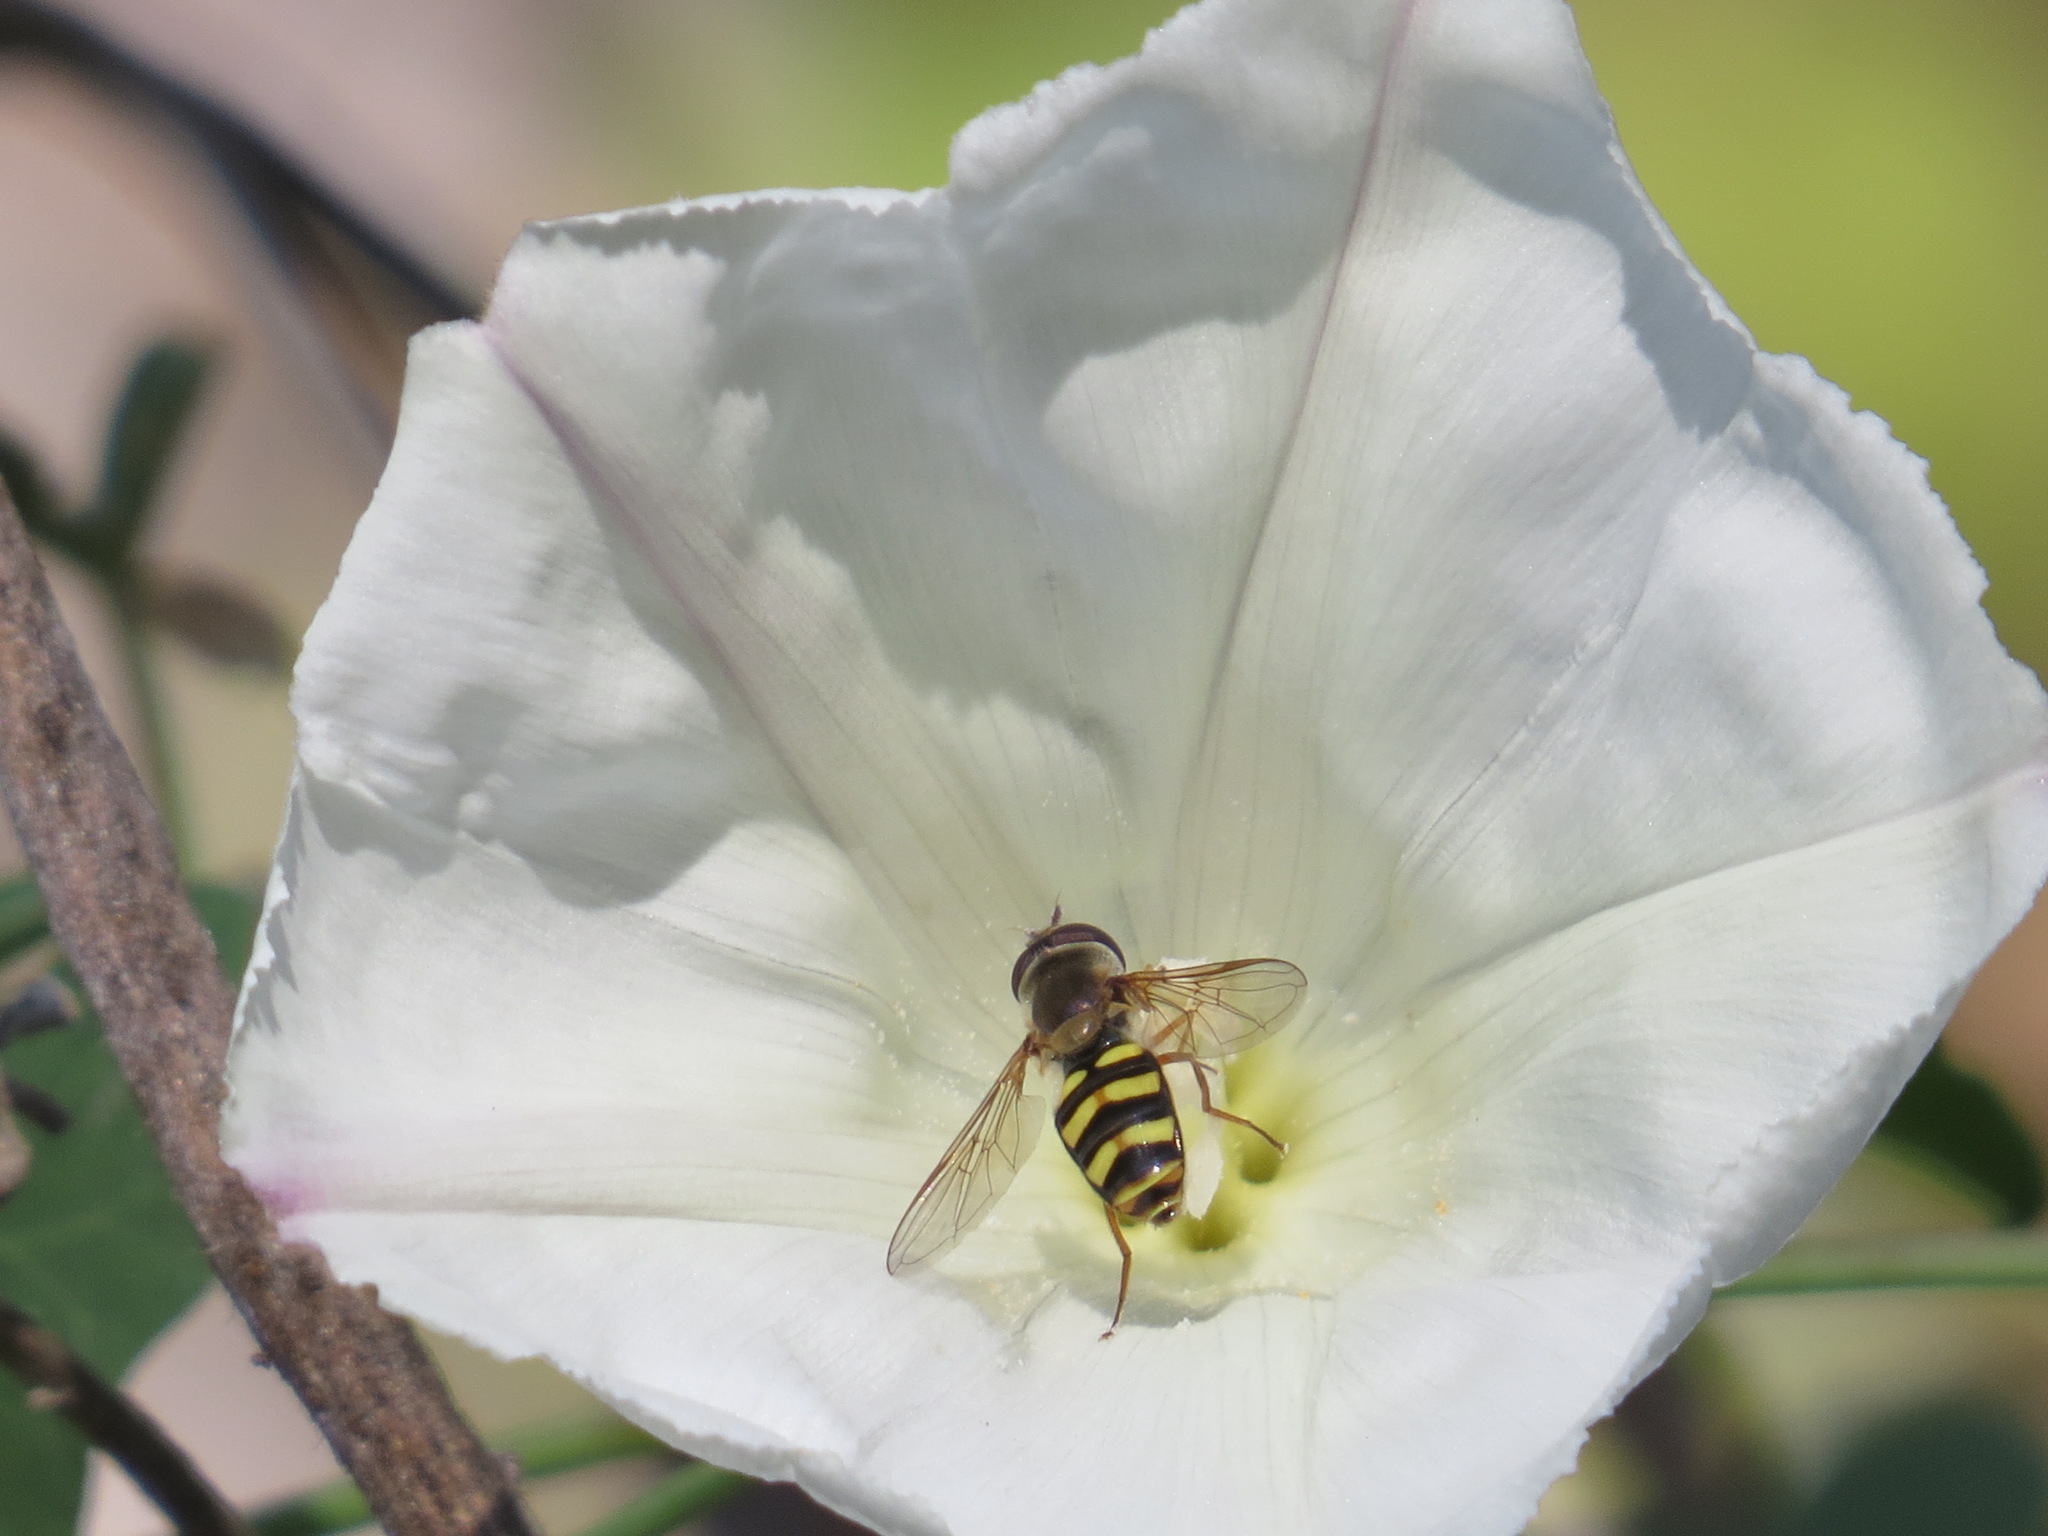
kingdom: Animalia
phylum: Arthropoda
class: Insecta
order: Diptera
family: Syrphidae
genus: Eupeodes
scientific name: Eupeodes fumipennis
